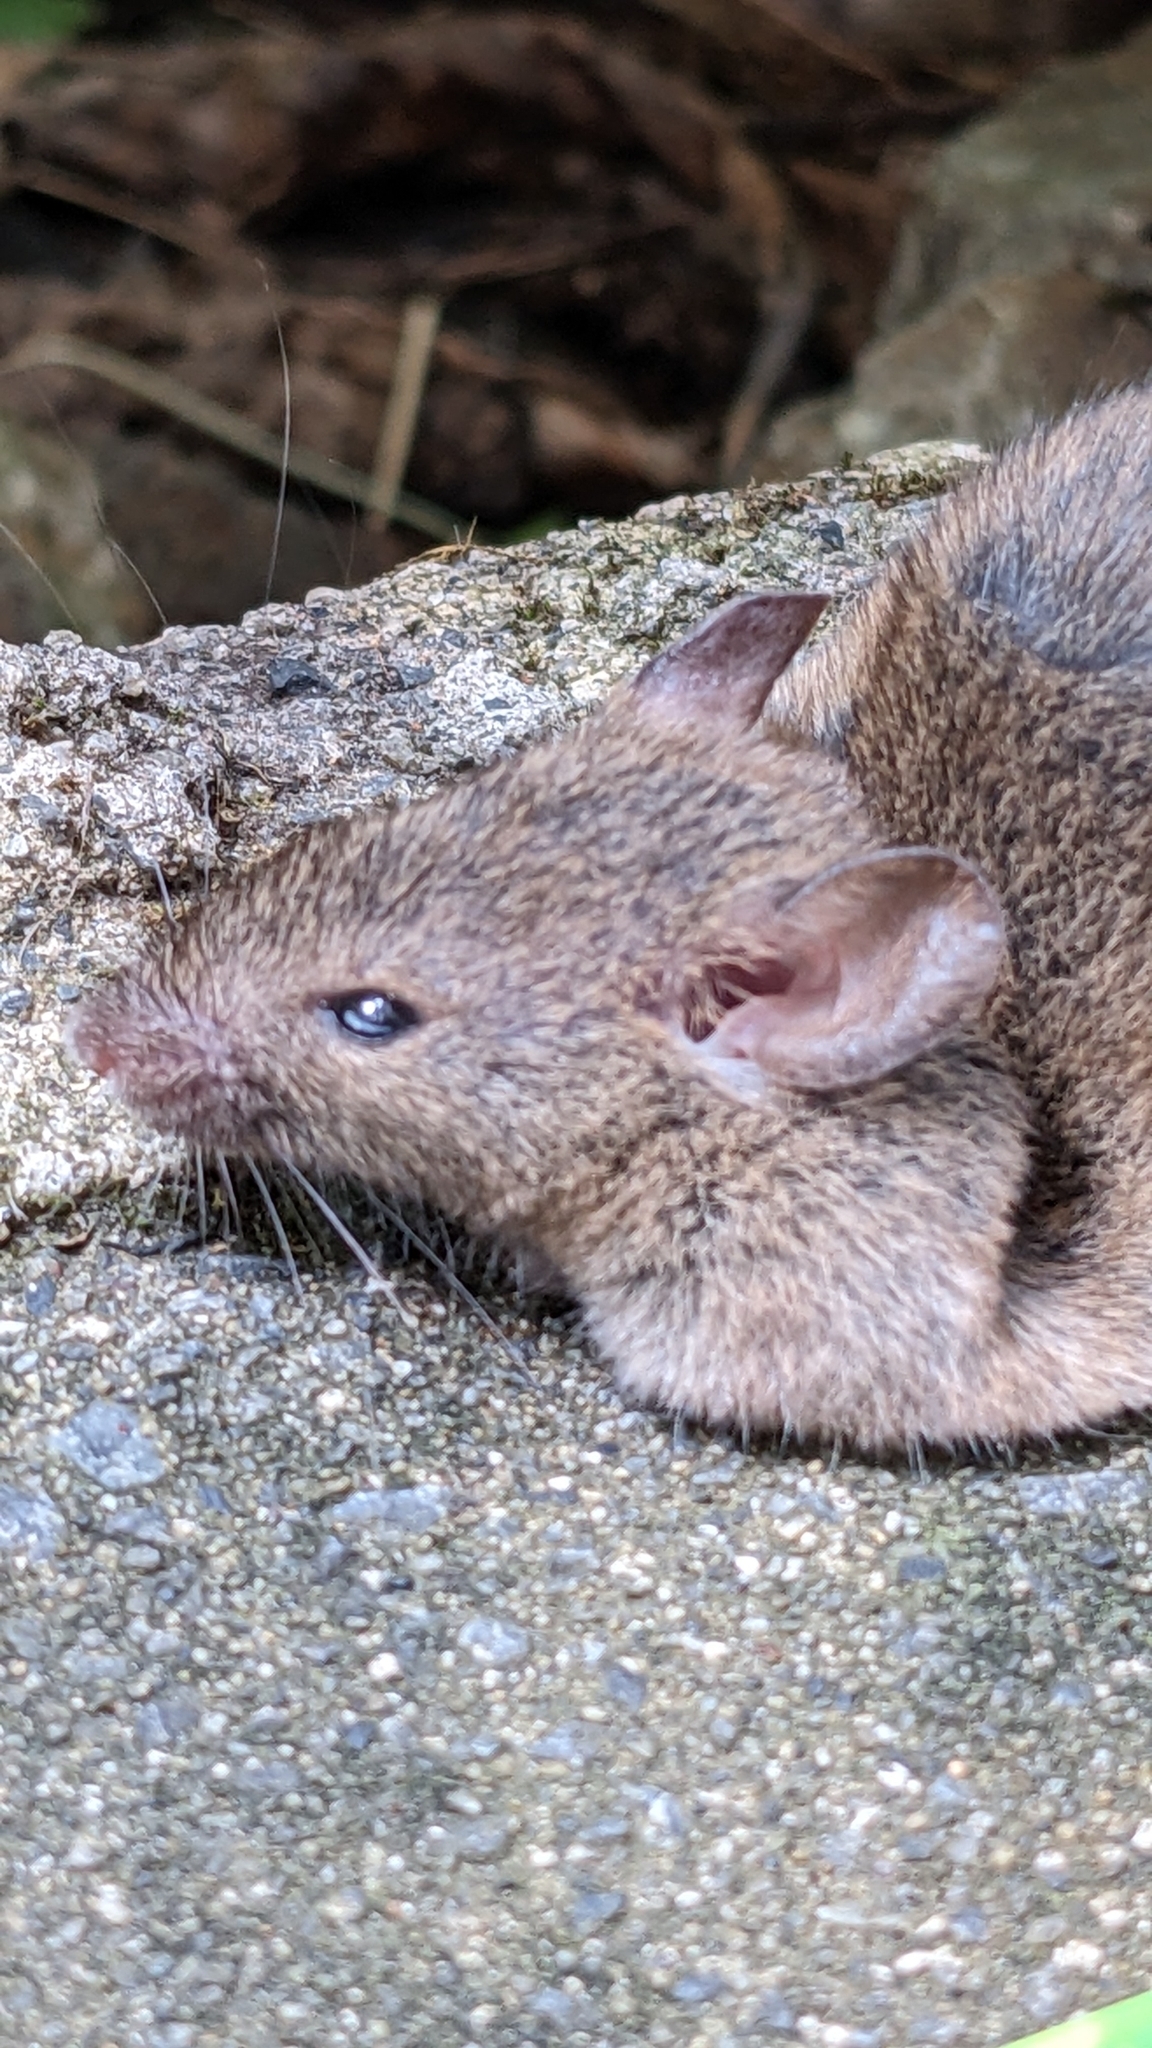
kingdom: Animalia
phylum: Chordata
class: Mammalia
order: Rodentia
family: Muridae
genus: Mus
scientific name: Mus musculus
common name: House mouse
